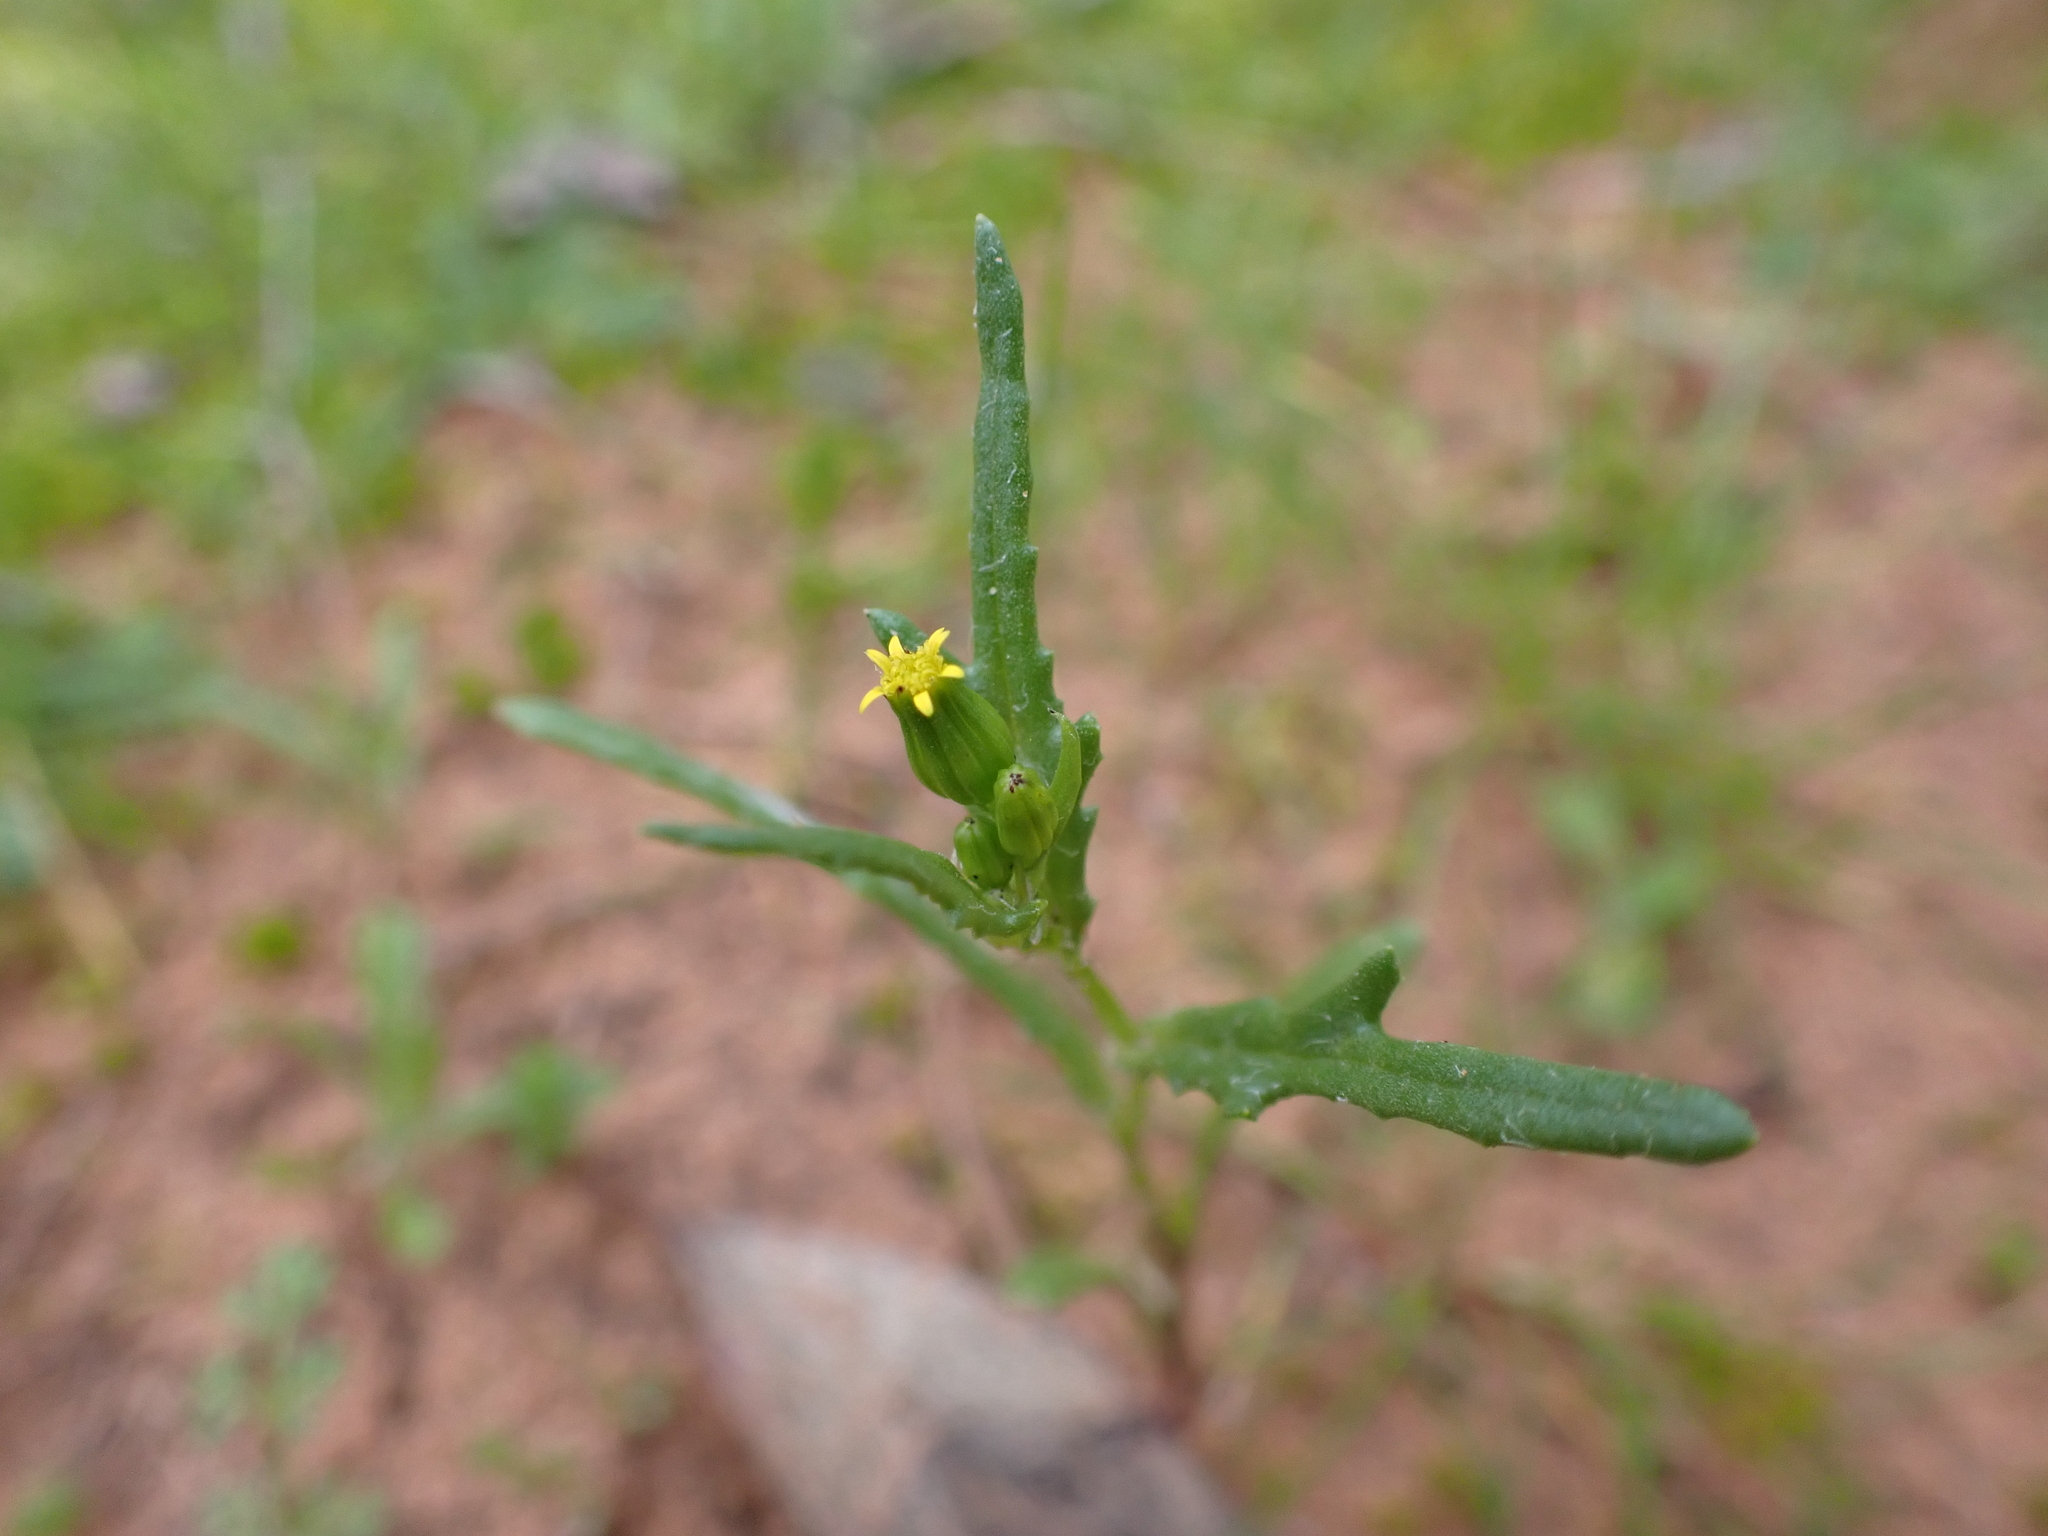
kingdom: Plantae
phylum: Tracheophyta
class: Magnoliopsida
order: Asterales
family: Asteraceae
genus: Senecio
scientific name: Senecio glossanthus
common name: Slender groundsel
